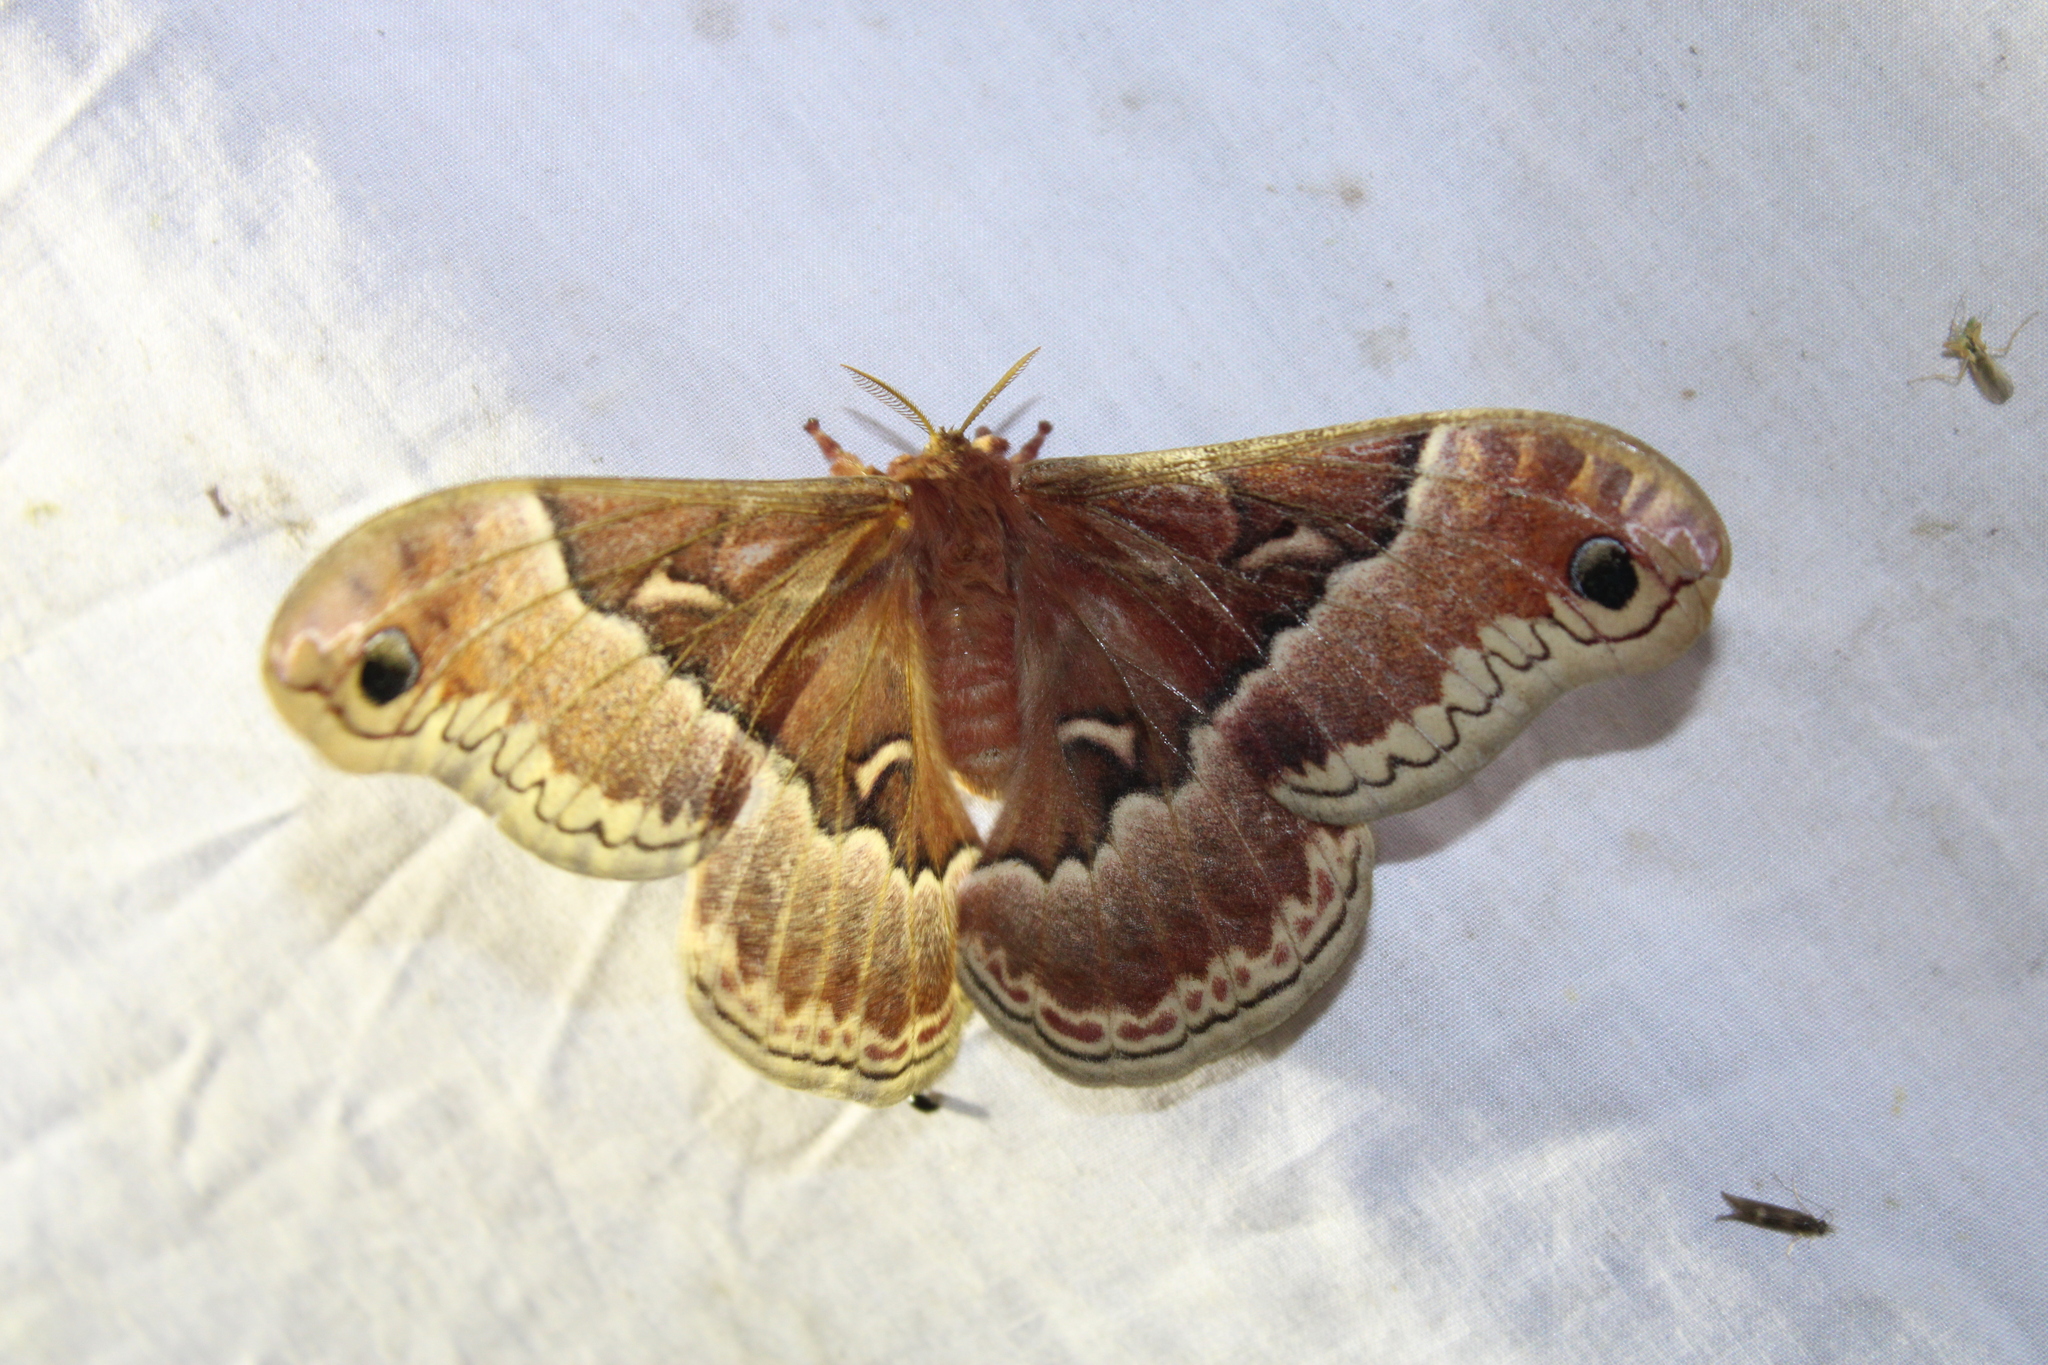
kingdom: Animalia
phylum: Arthropoda
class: Insecta
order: Lepidoptera
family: Saturniidae
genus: Callosamia
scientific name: Callosamia promethea
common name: Promethea silkmoth
